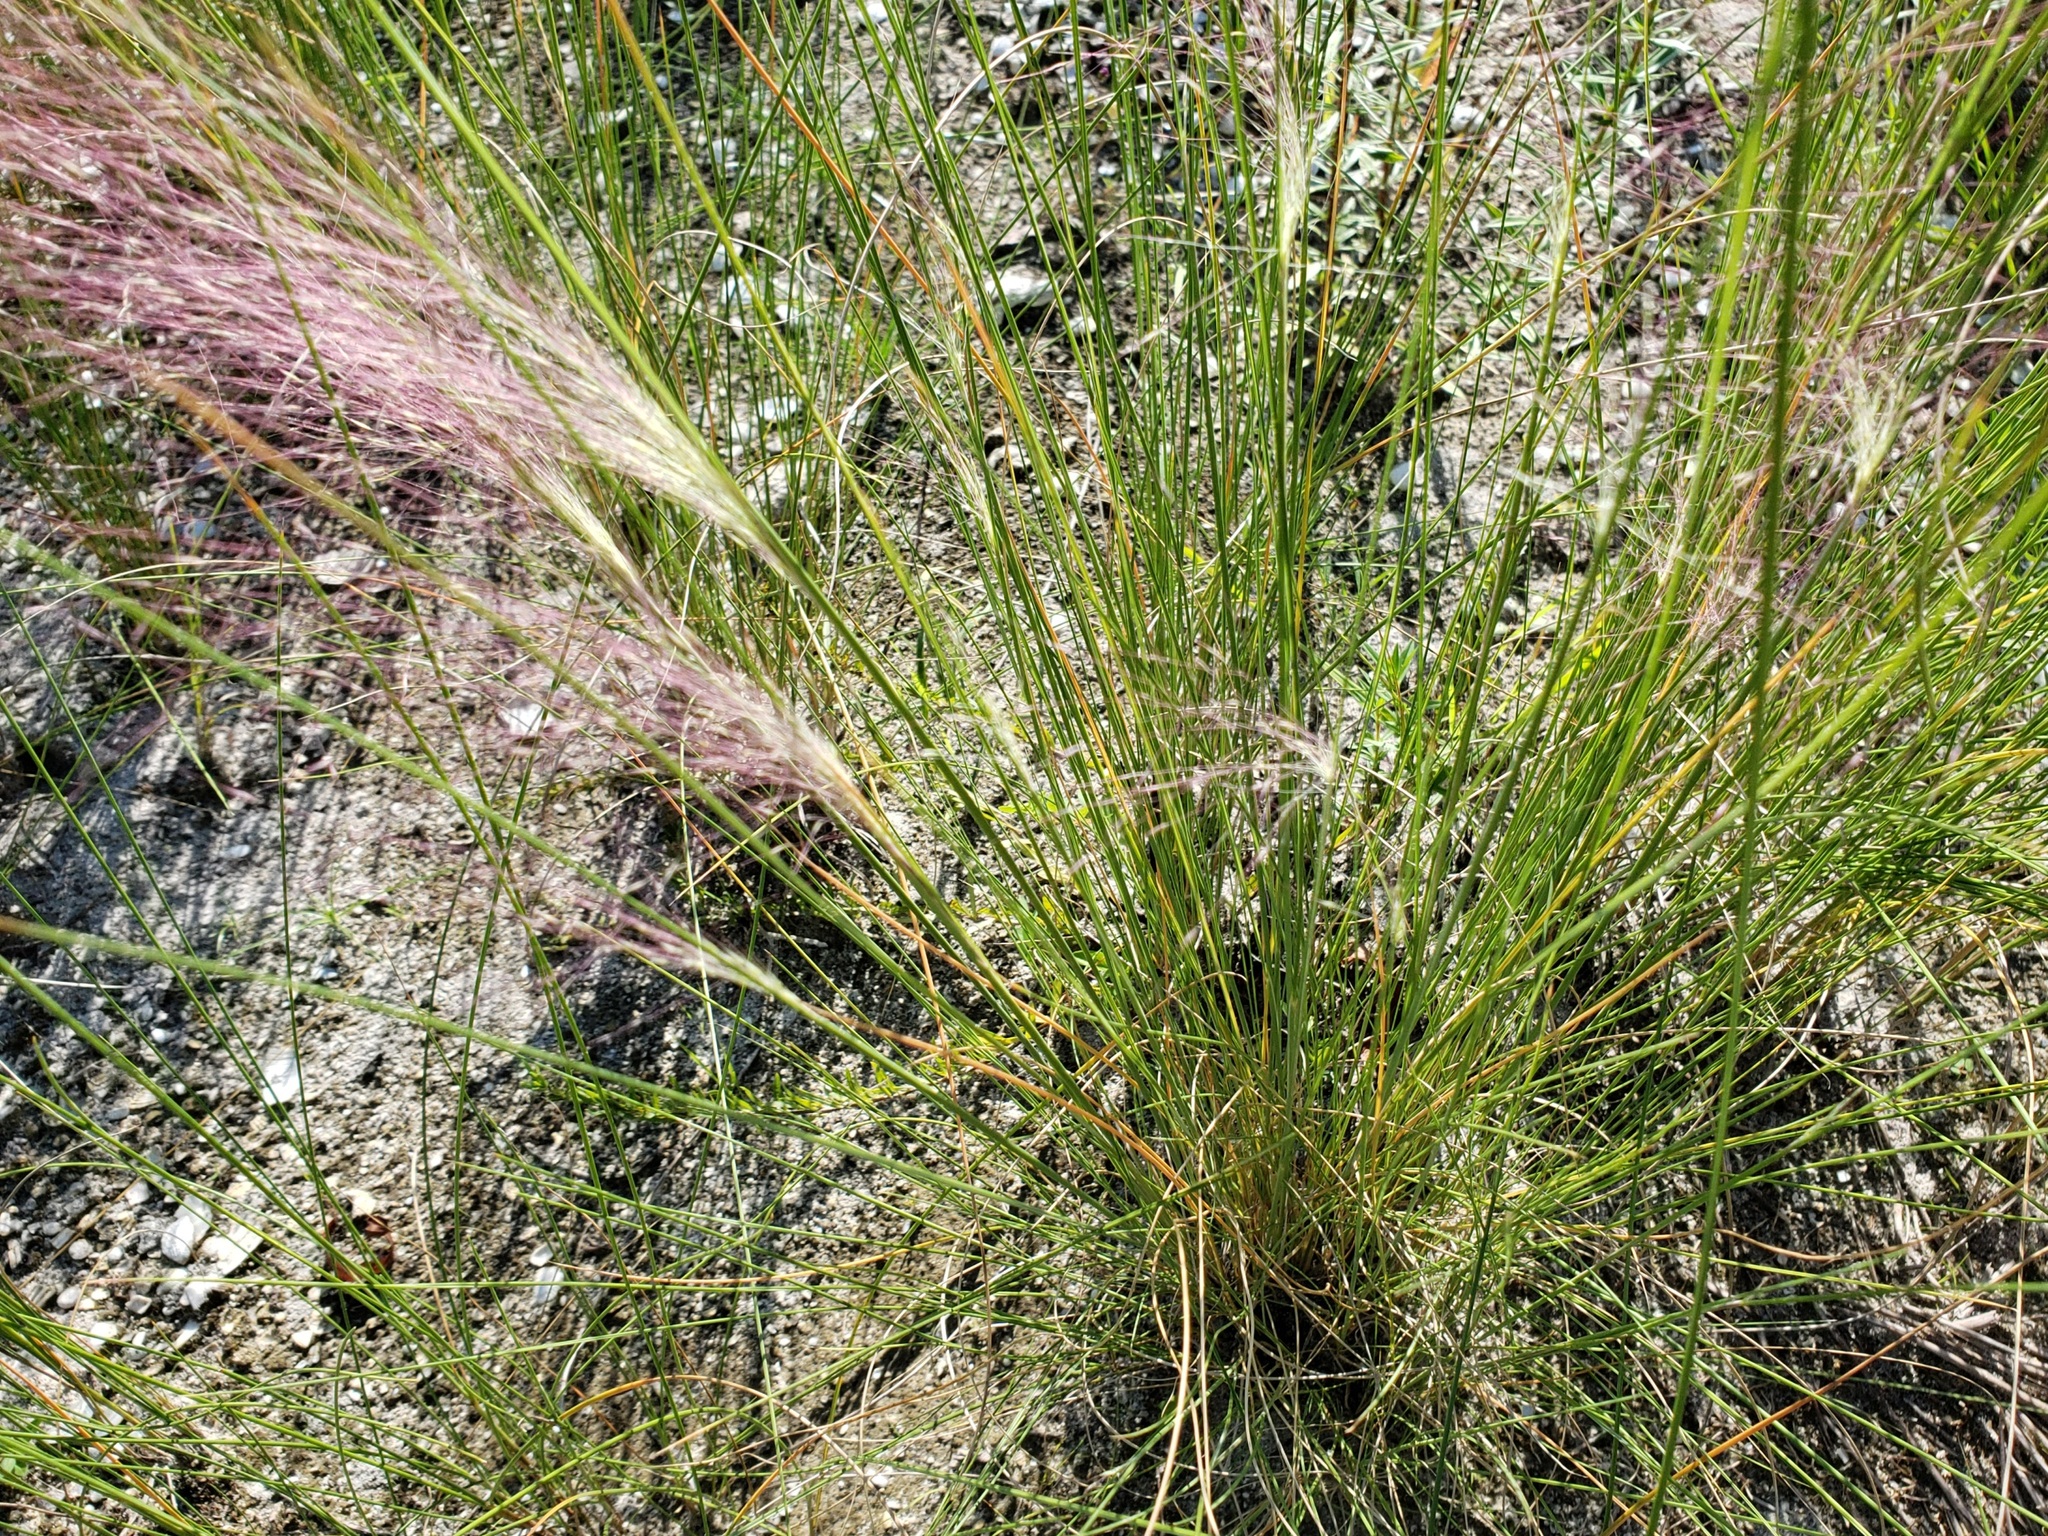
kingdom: Plantae
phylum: Tracheophyta
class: Liliopsida
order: Poales
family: Poaceae
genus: Muhlenbergia
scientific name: Muhlenbergia capillaris
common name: Purple grass
